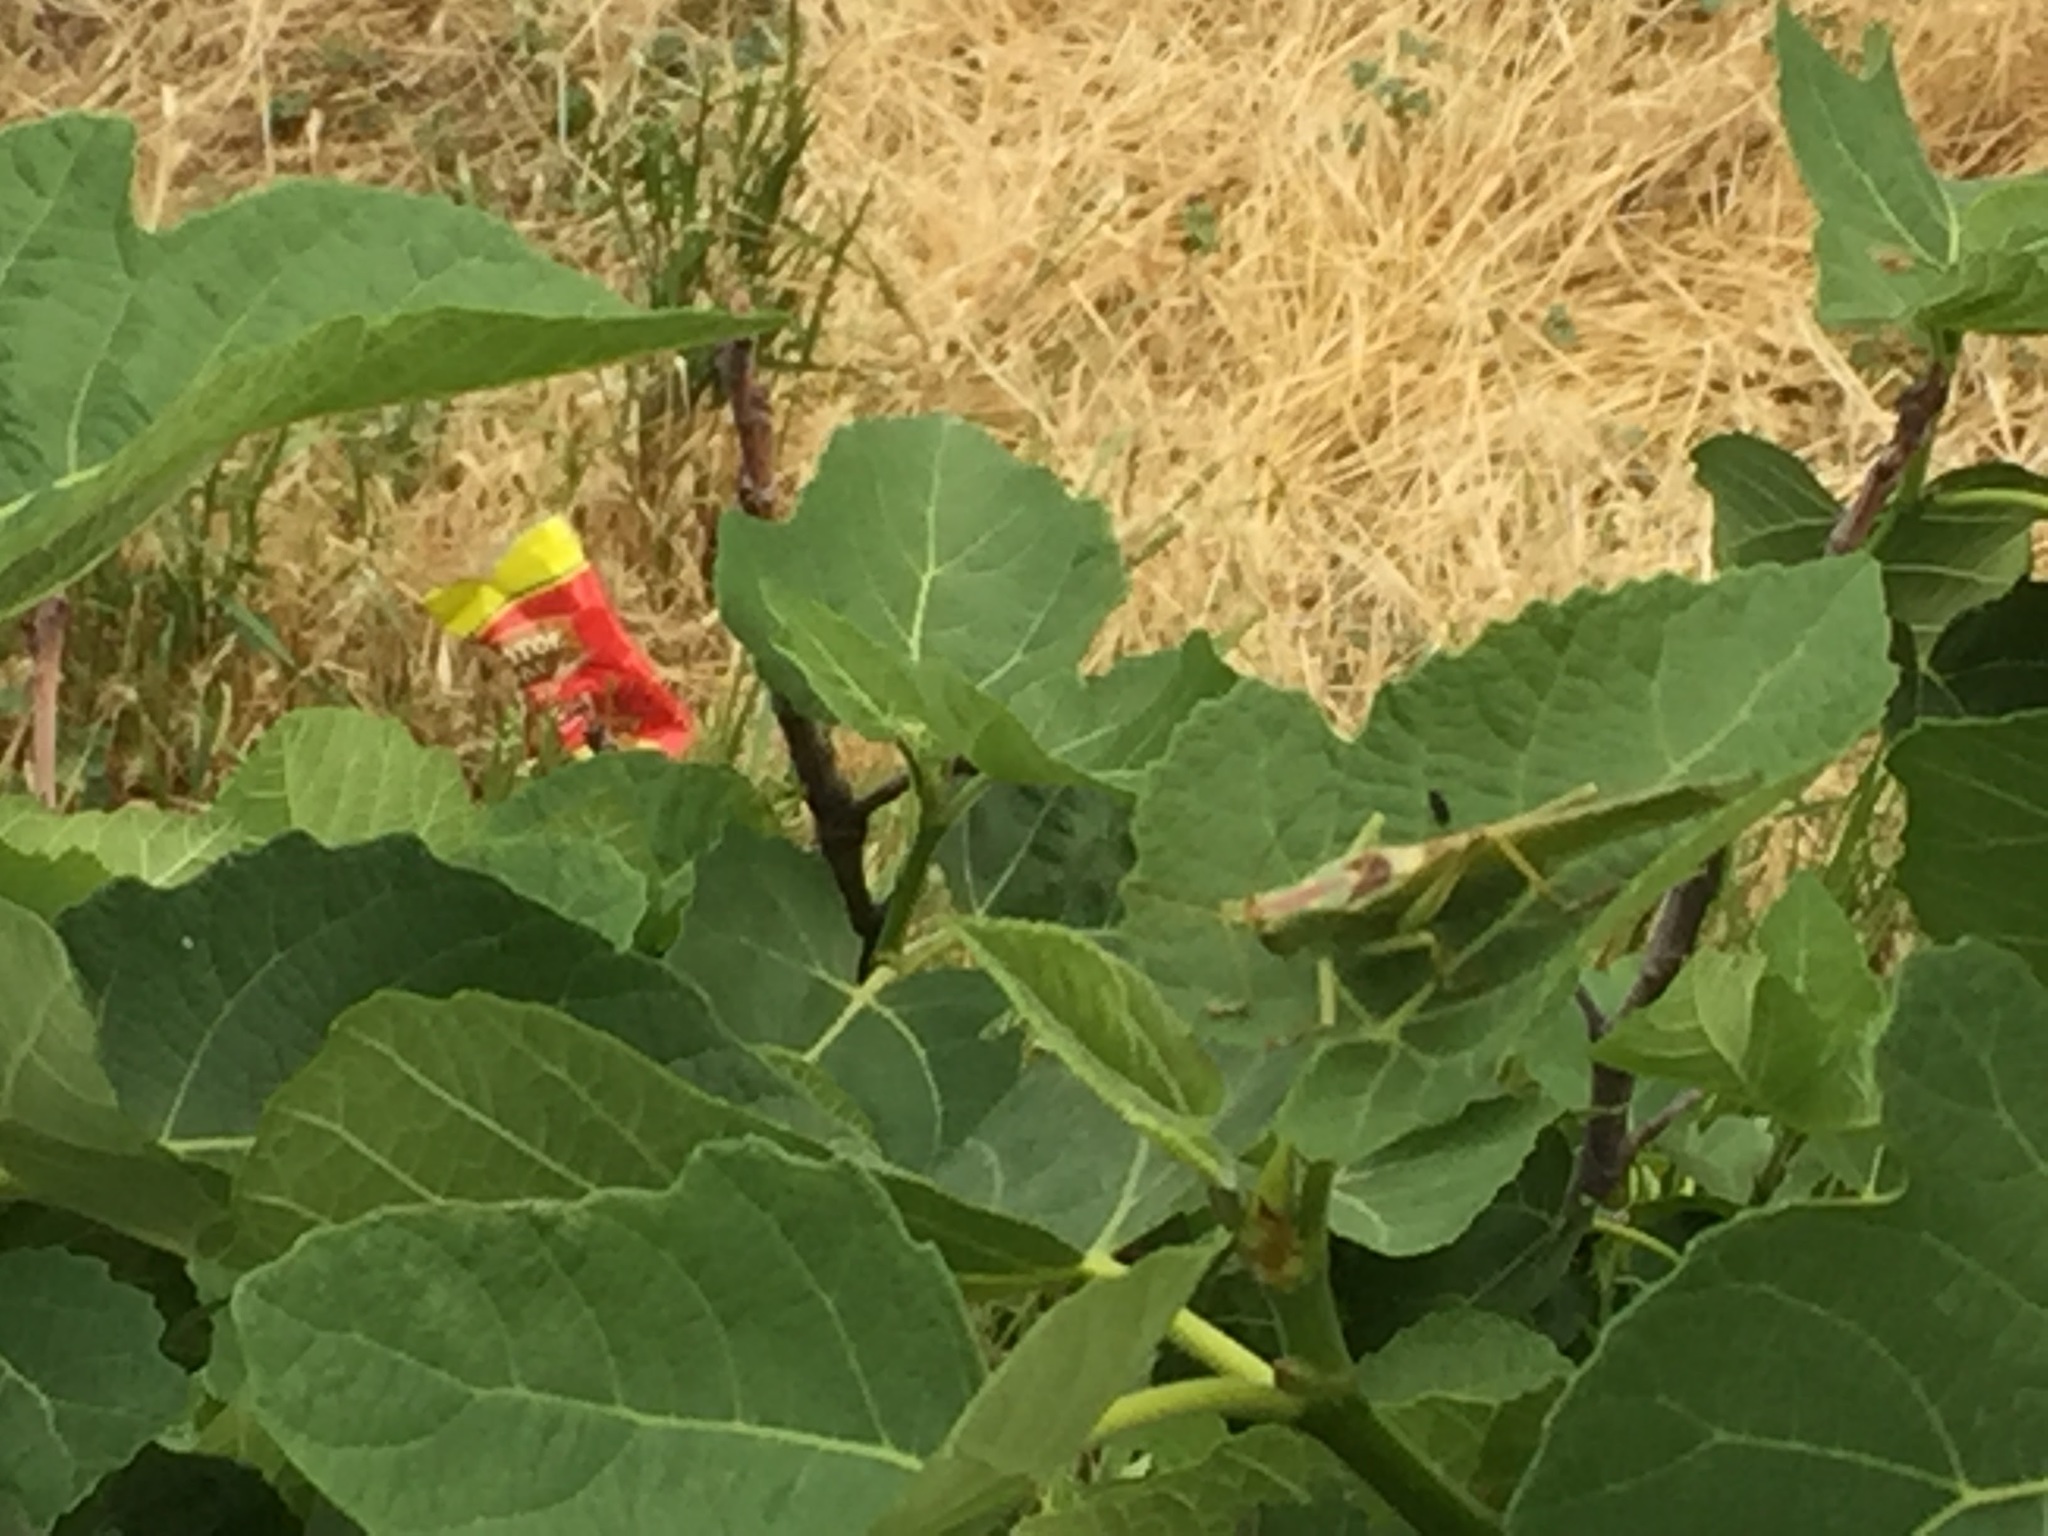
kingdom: Animalia
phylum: Arthropoda
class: Insecta
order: Orthoptera
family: Tettigoniidae
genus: Tettigonia
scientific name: Tettigonia viridissima
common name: Great green bush-cricket
